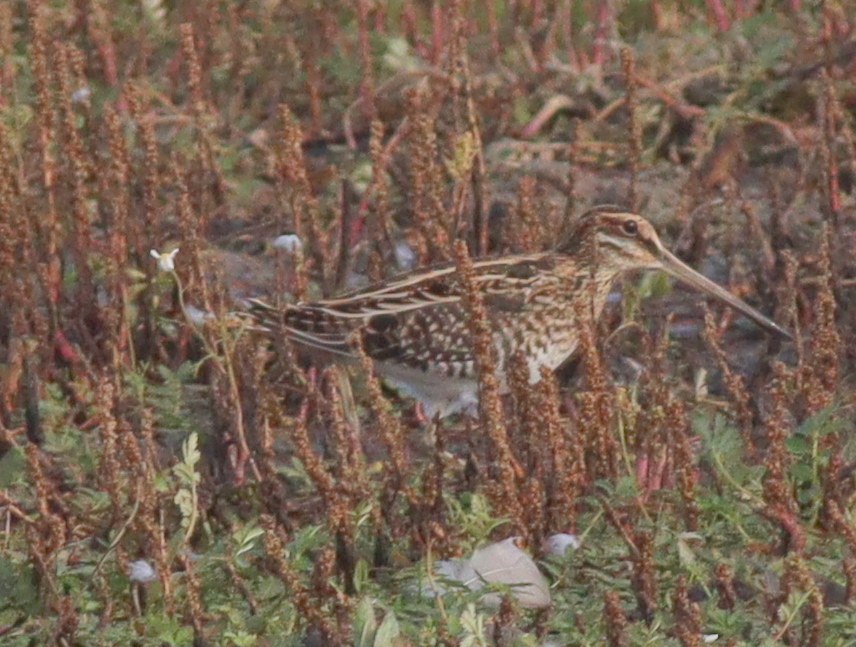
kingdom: Animalia
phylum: Chordata
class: Aves
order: Charadriiformes
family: Scolopacidae
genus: Gallinago
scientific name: Gallinago gallinago
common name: Common snipe
